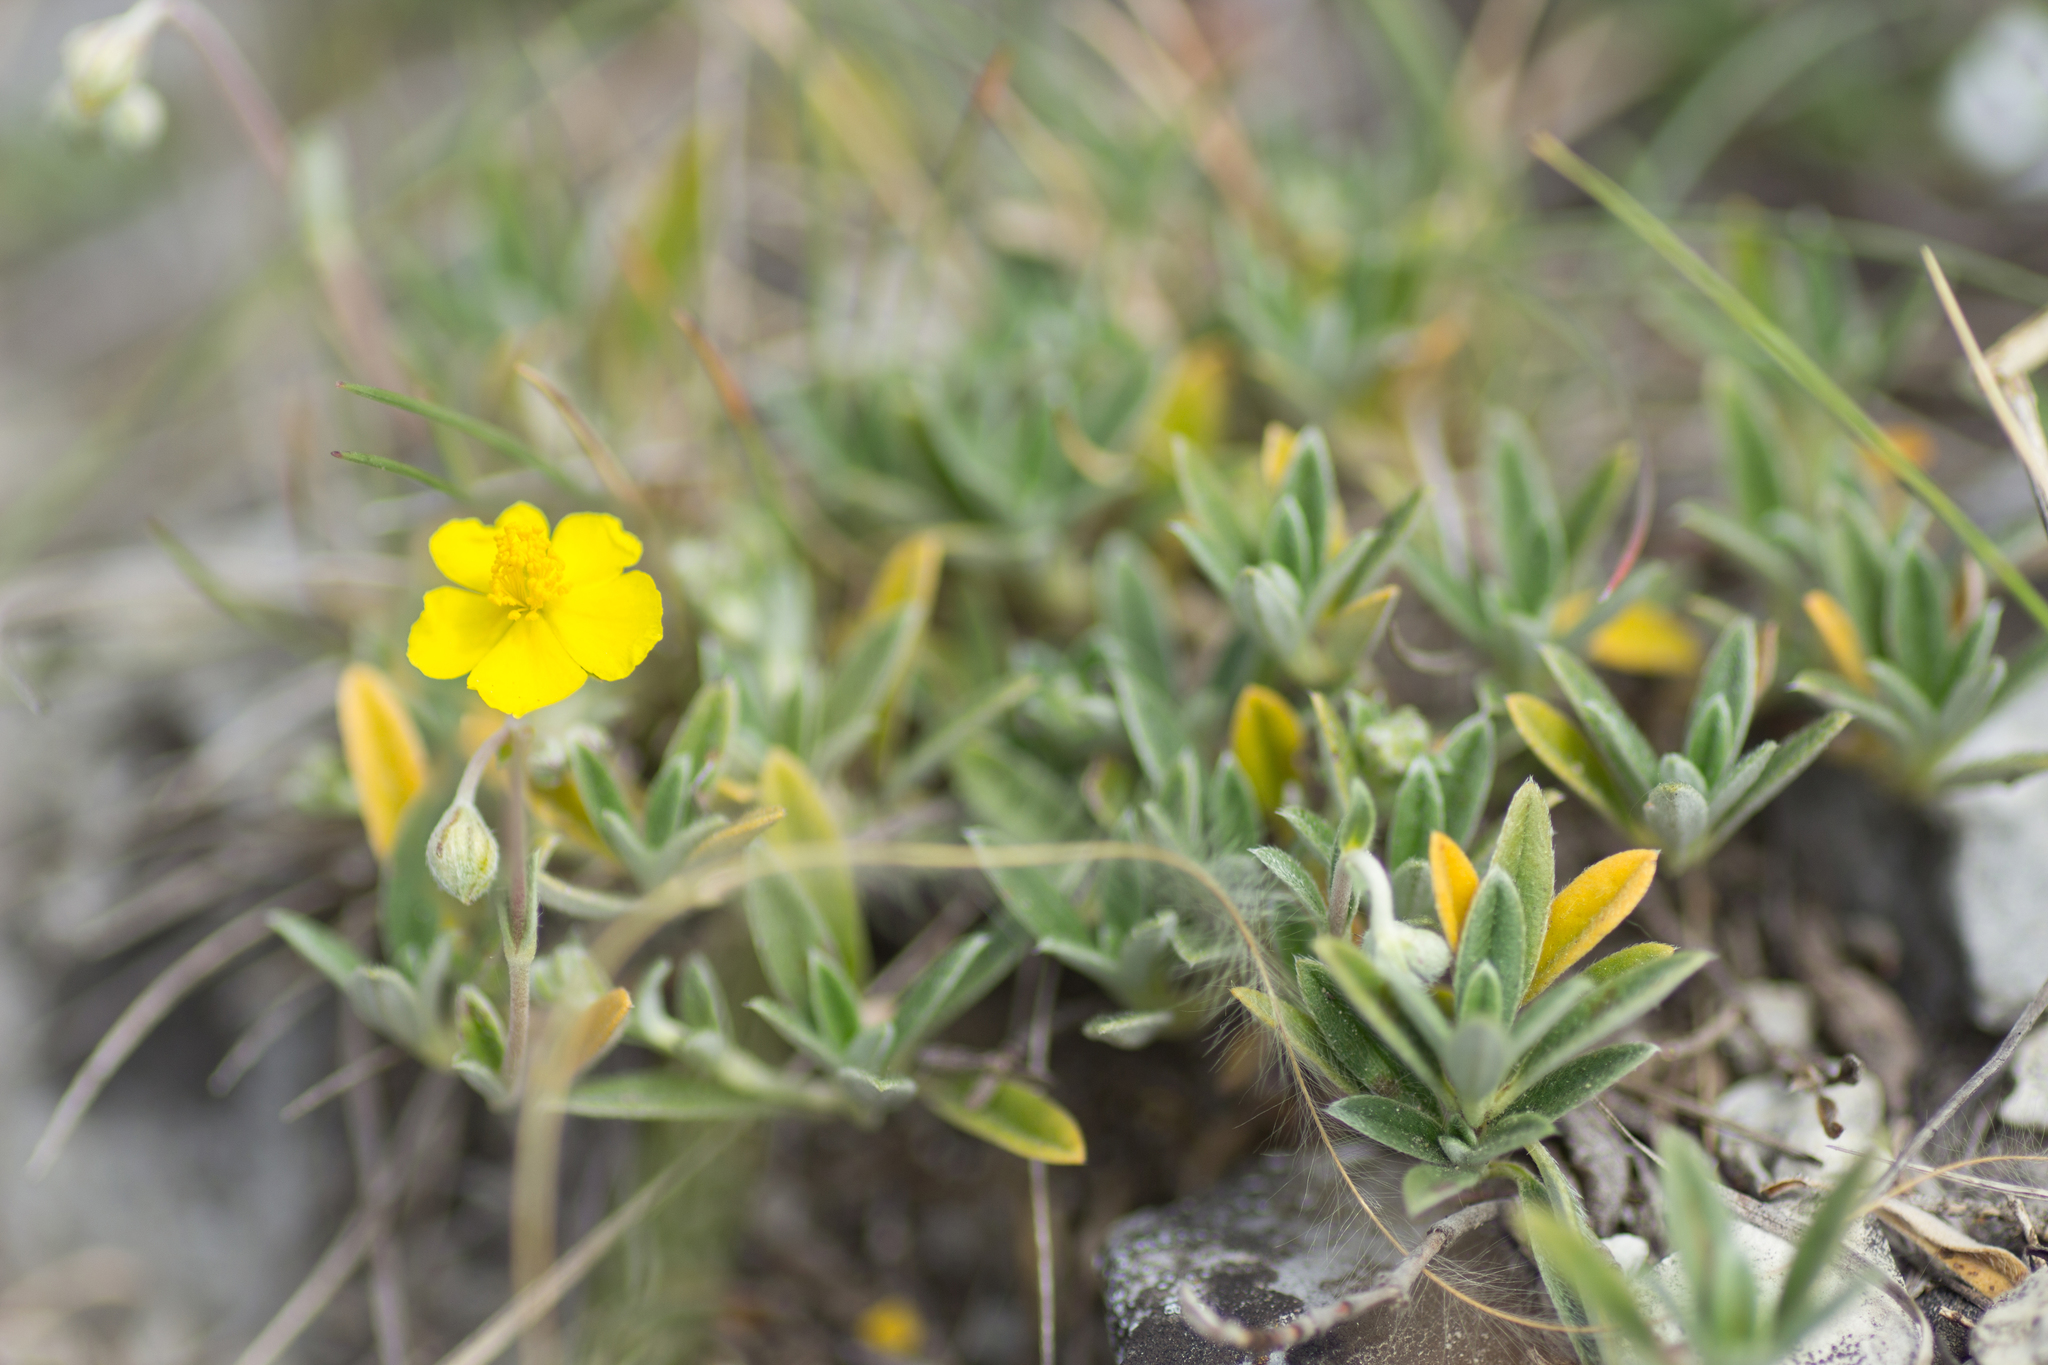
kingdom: Plantae
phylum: Tracheophyta
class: Magnoliopsida
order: Malvales
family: Cistaceae
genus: Helianthemum
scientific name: Helianthemum canum
